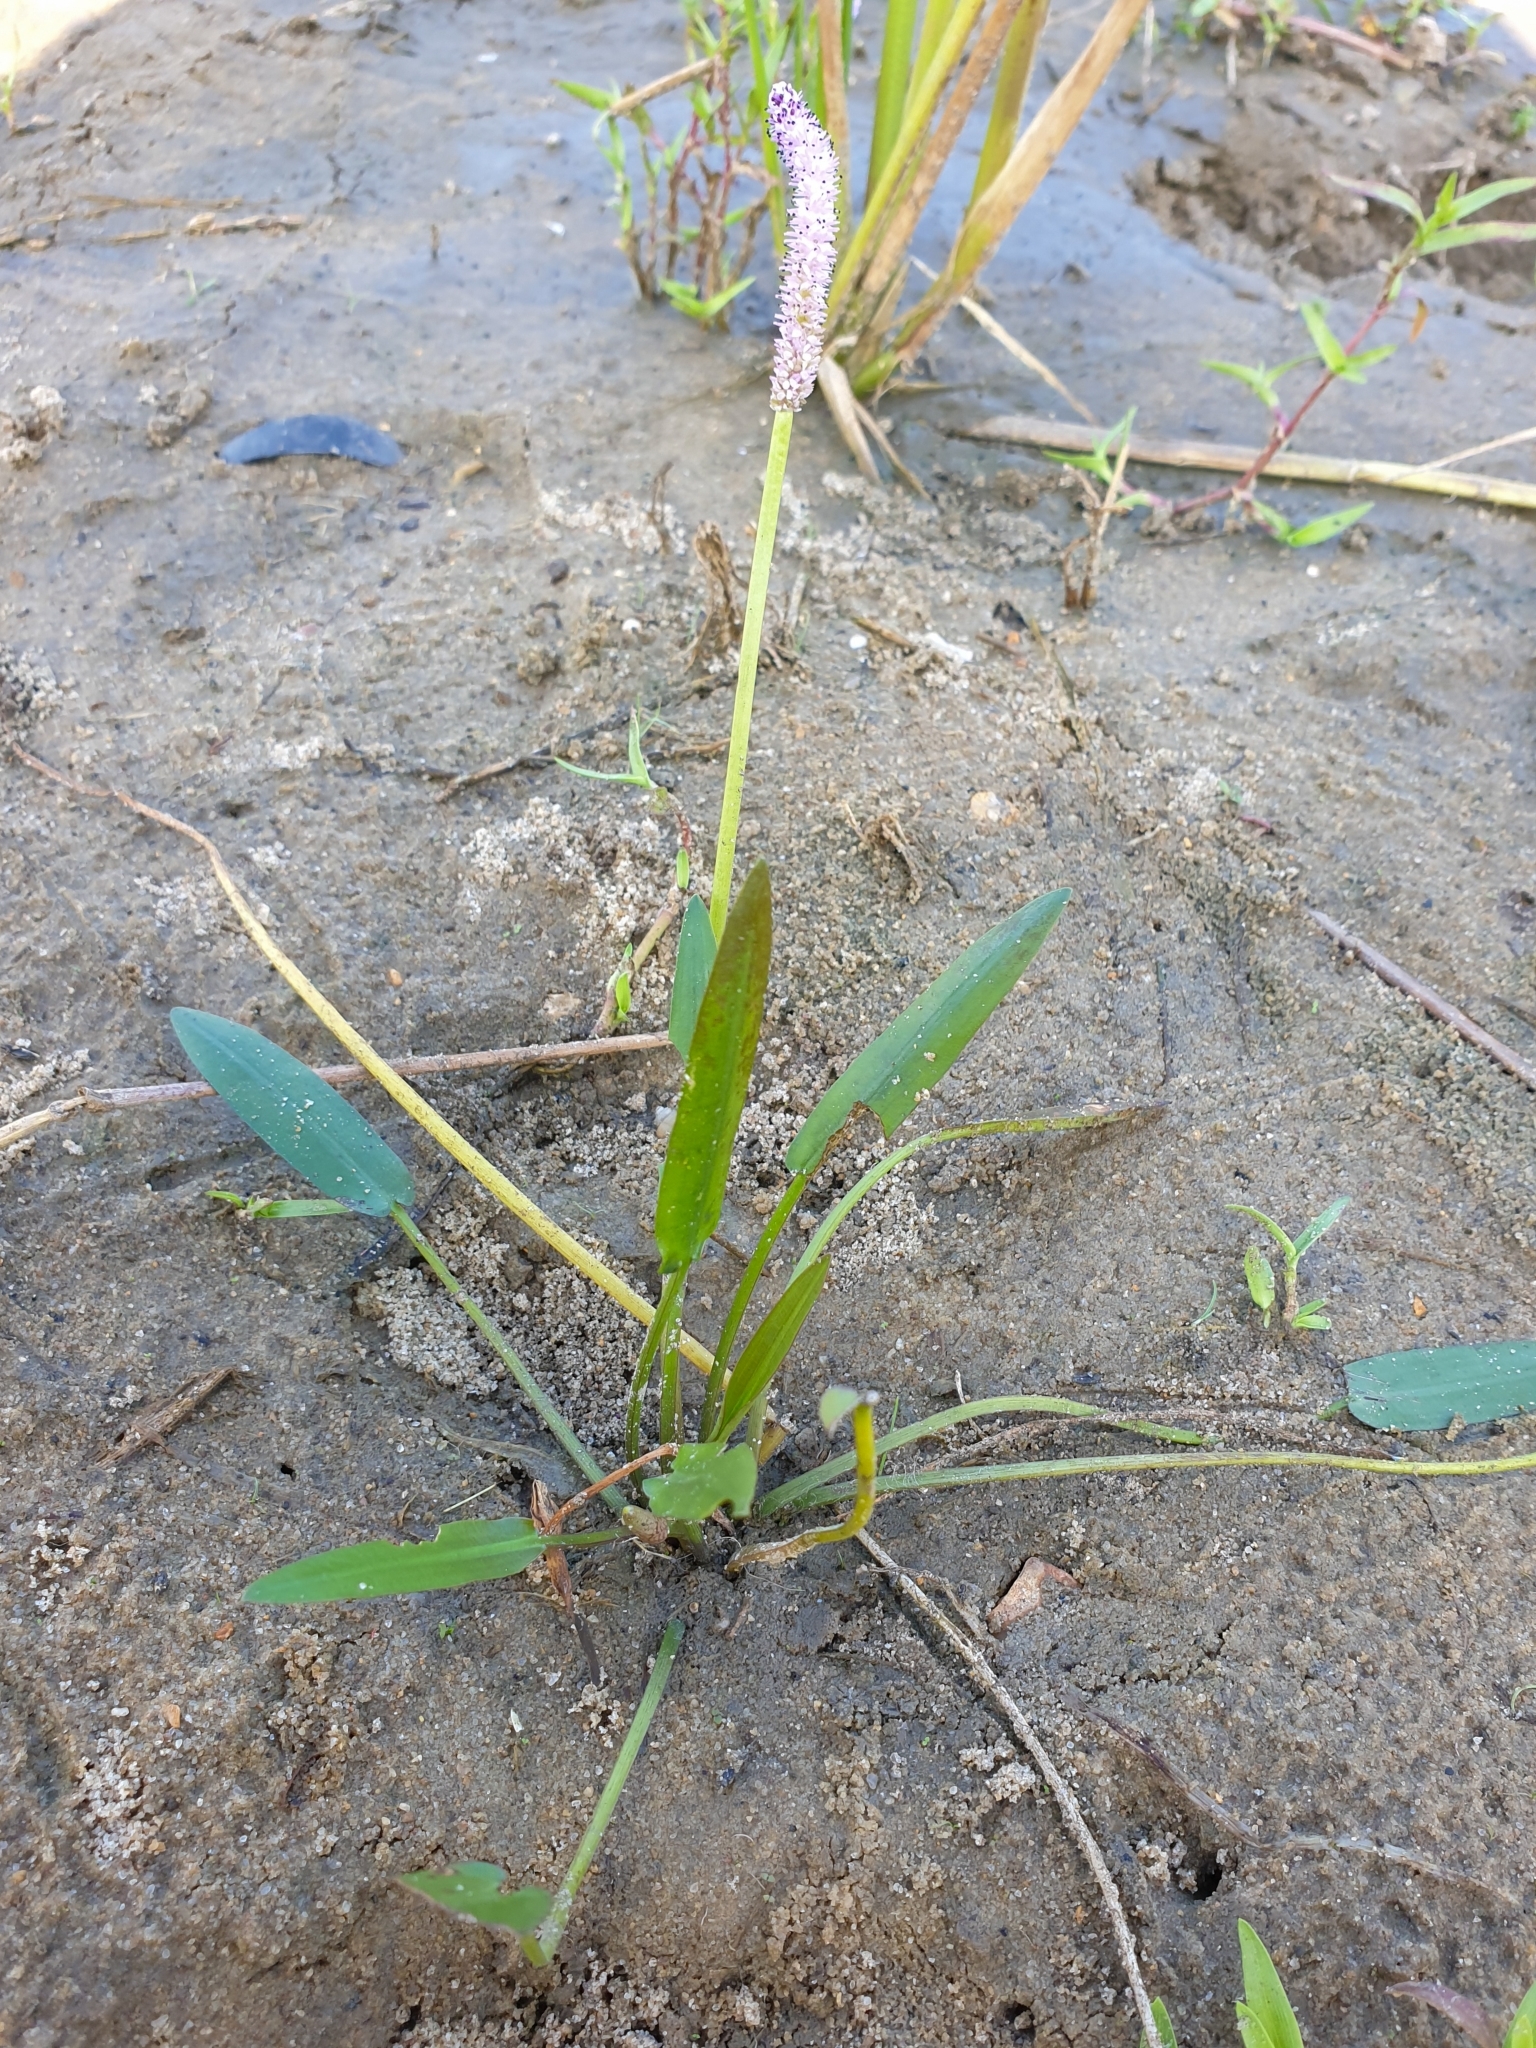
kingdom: Plantae
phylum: Tracheophyta
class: Liliopsida
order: Alismatales
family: Aponogetonaceae
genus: Aponogeton
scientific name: Aponogeton natans
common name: Drifting sword plant
